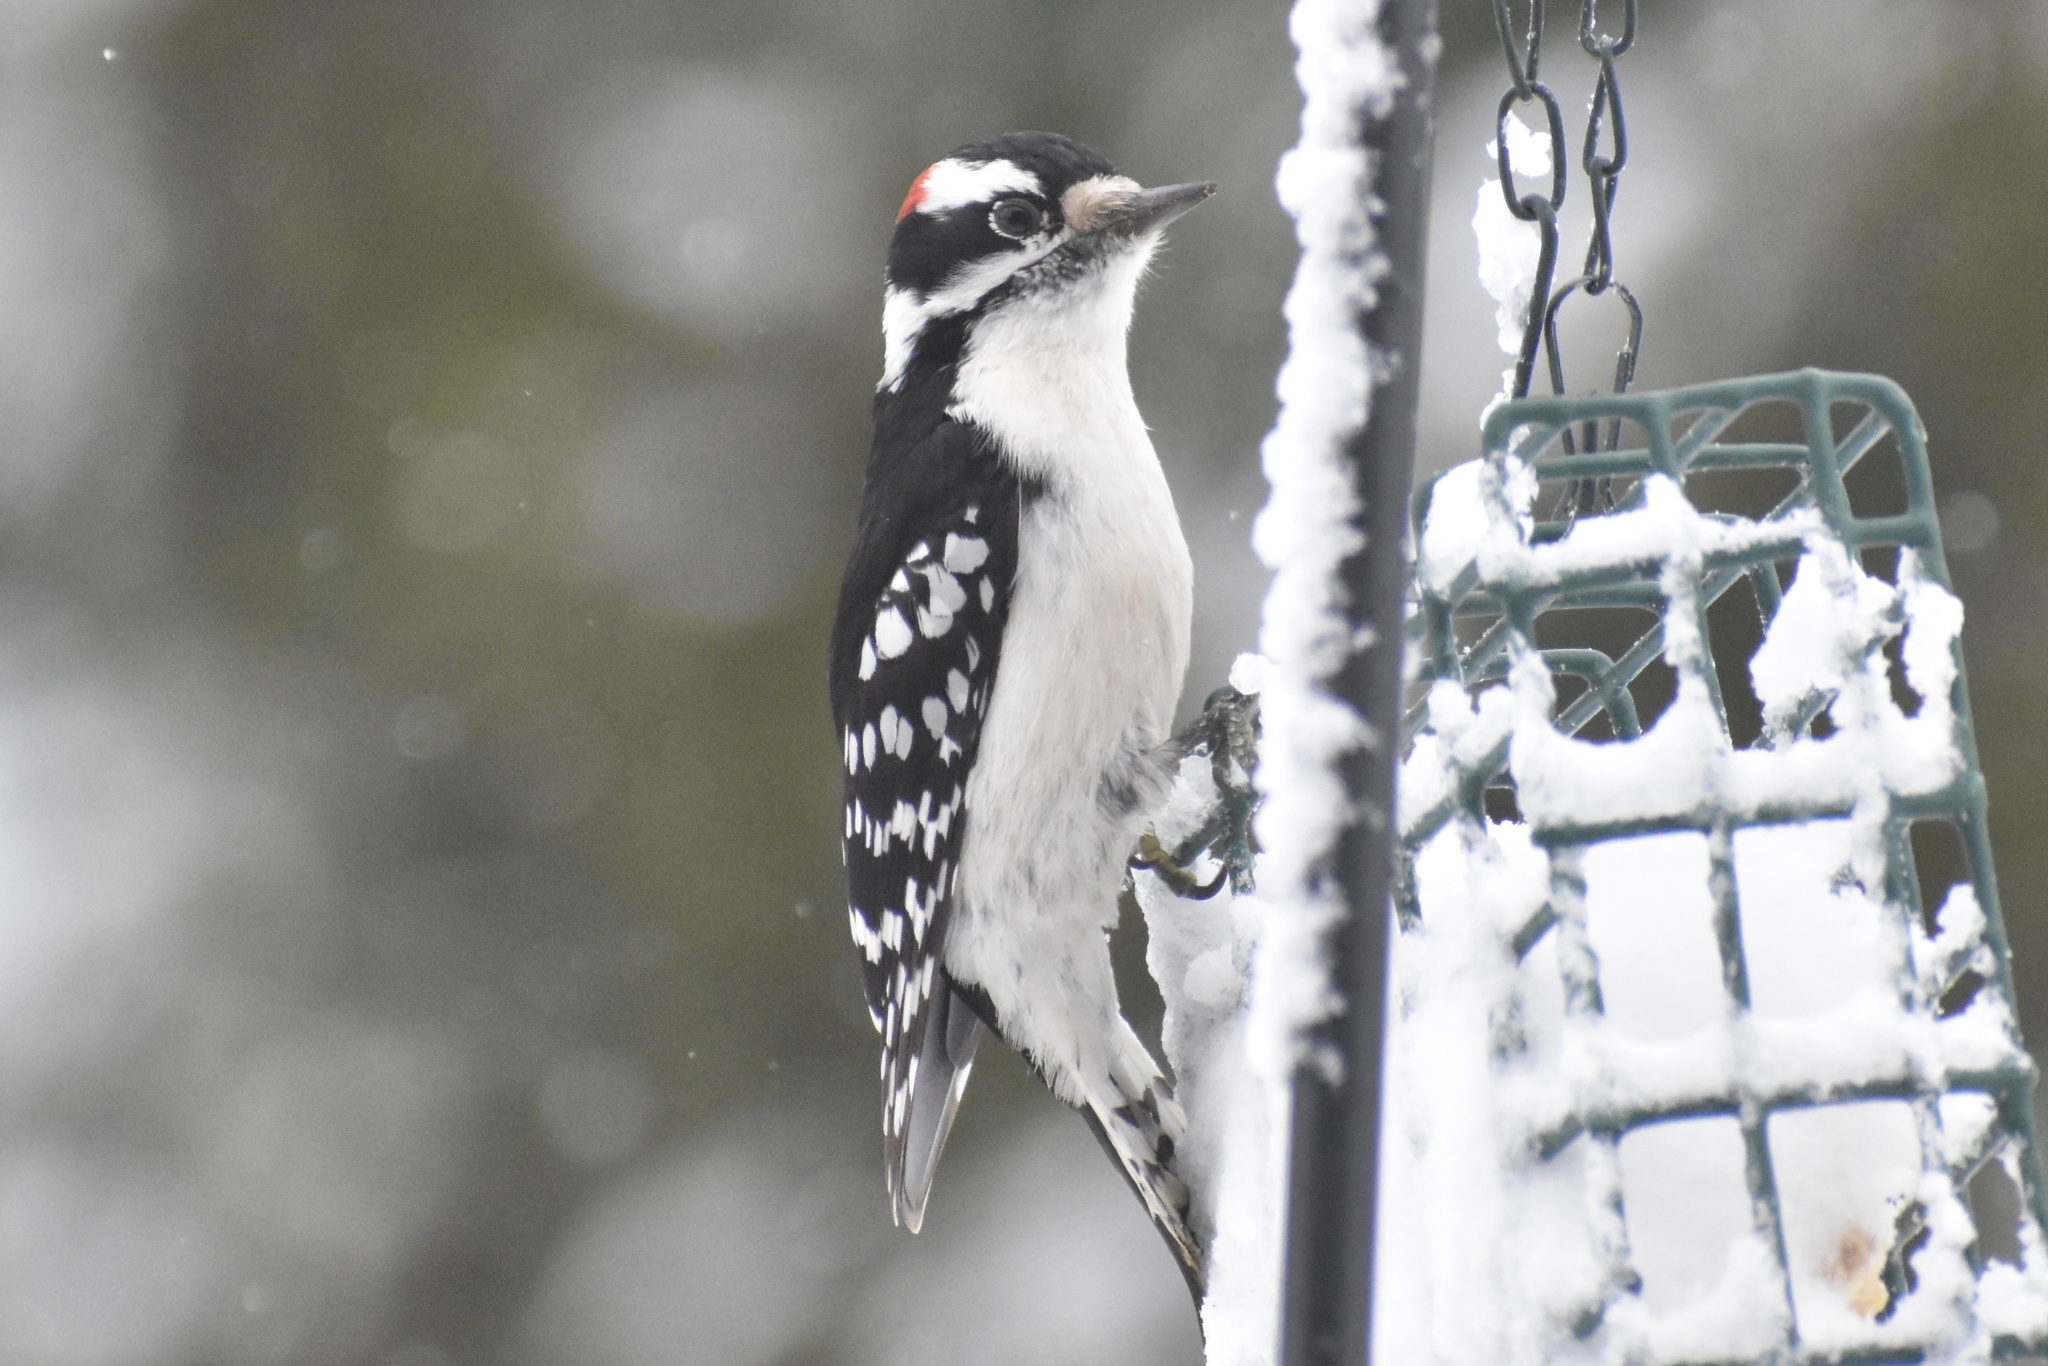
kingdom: Animalia
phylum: Chordata
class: Aves
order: Piciformes
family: Picidae
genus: Dryobates
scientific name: Dryobates pubescens
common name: Downy woodpecker
